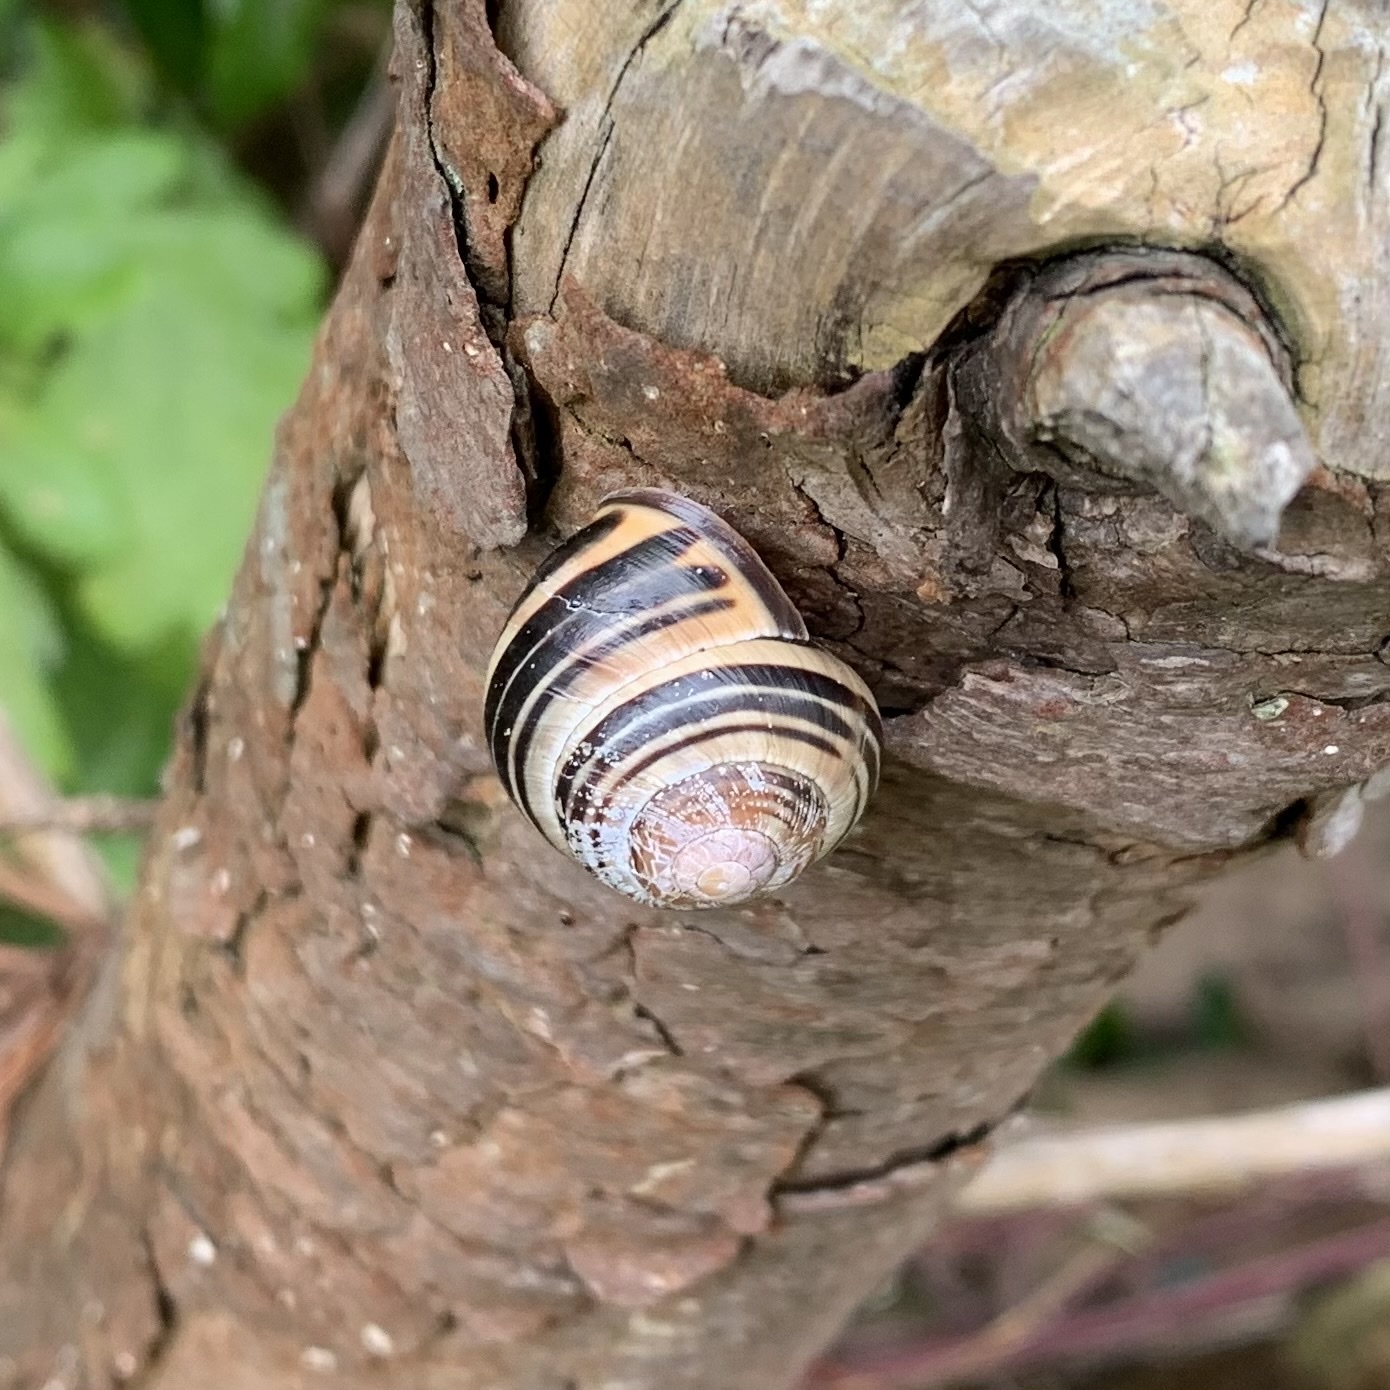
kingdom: Animalia
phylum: Mollusca
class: Gastropoda
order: Stylommatophora
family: Helicidae
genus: Cepaea
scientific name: Cepaea nemoralis
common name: Grovesnail
